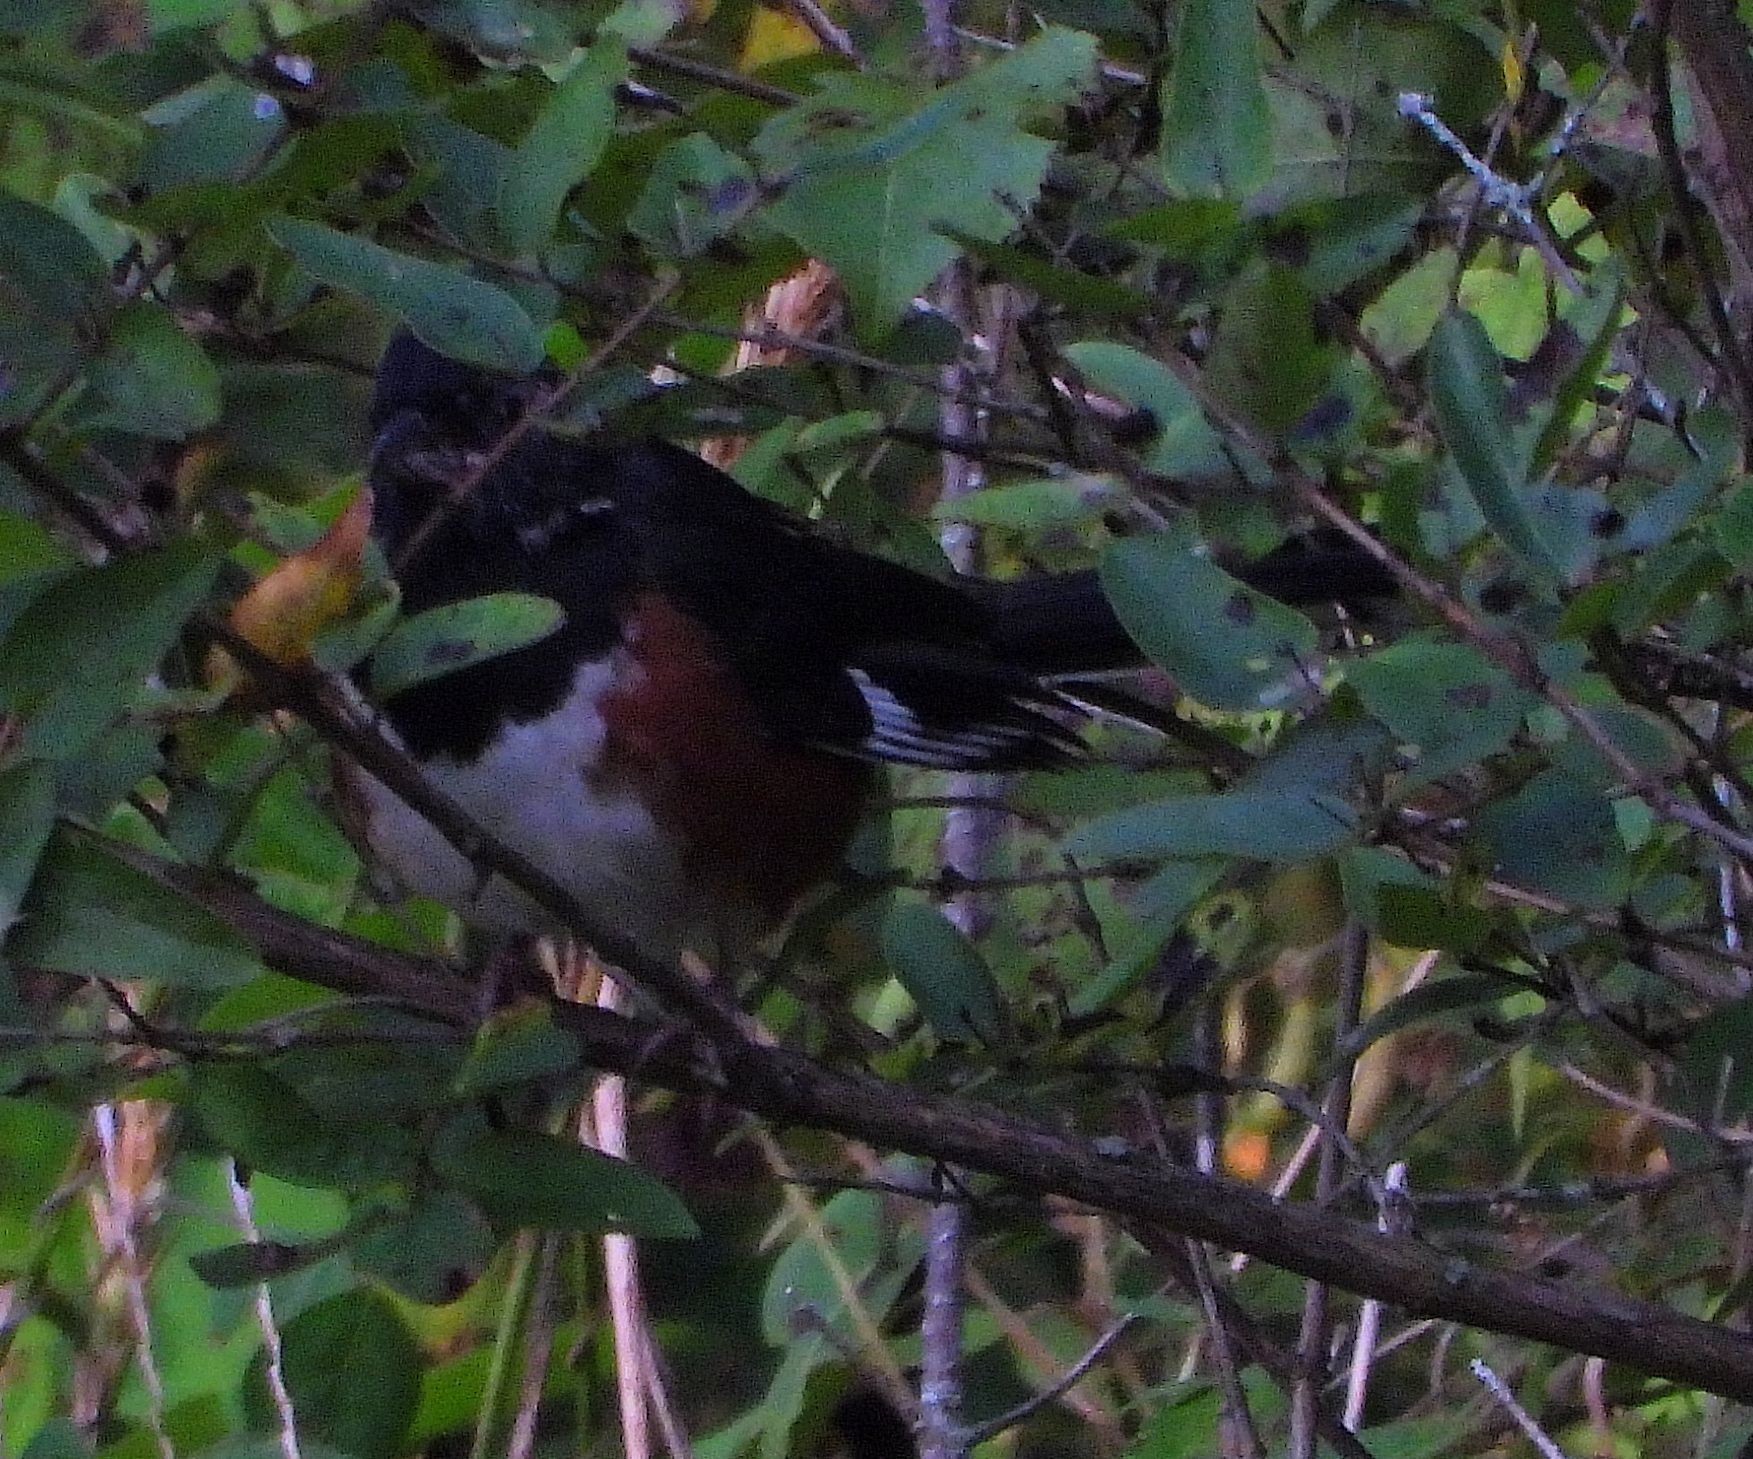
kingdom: Animalia
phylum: Chordata
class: Aves
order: Passeriformes
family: Passerellidae
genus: Pipilo
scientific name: Pipilo erythrophthalmus
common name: Eastern towhee
